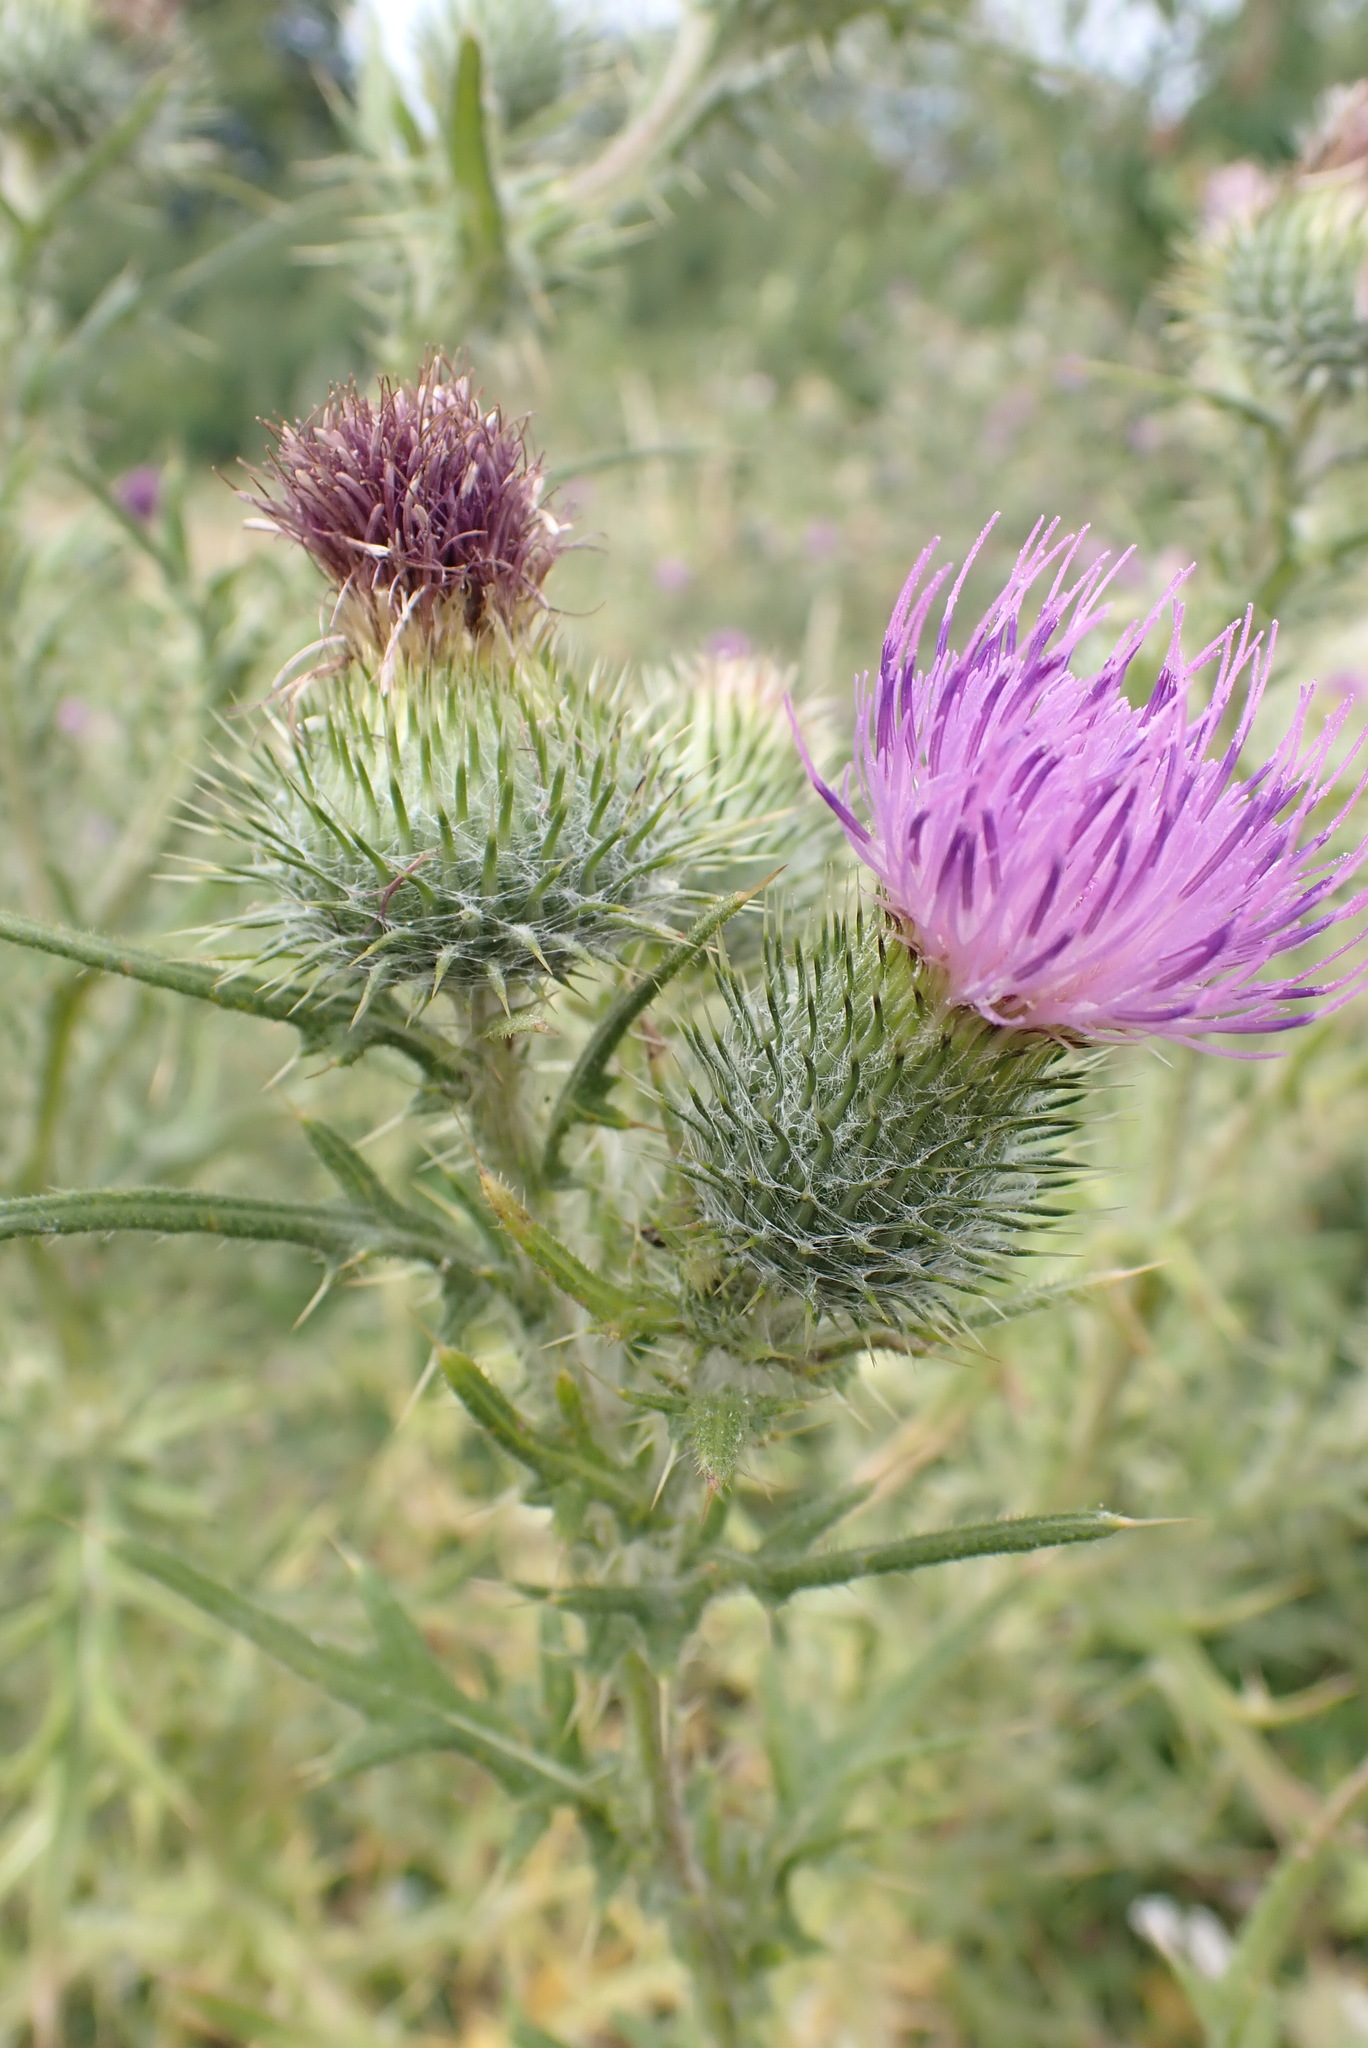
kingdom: Plantae
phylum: Tracheophyta
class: Magnoliopsida
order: Asterales
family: Asteraceae
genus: Cirsium
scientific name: Cirsium vulgare
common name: Bull thistle
